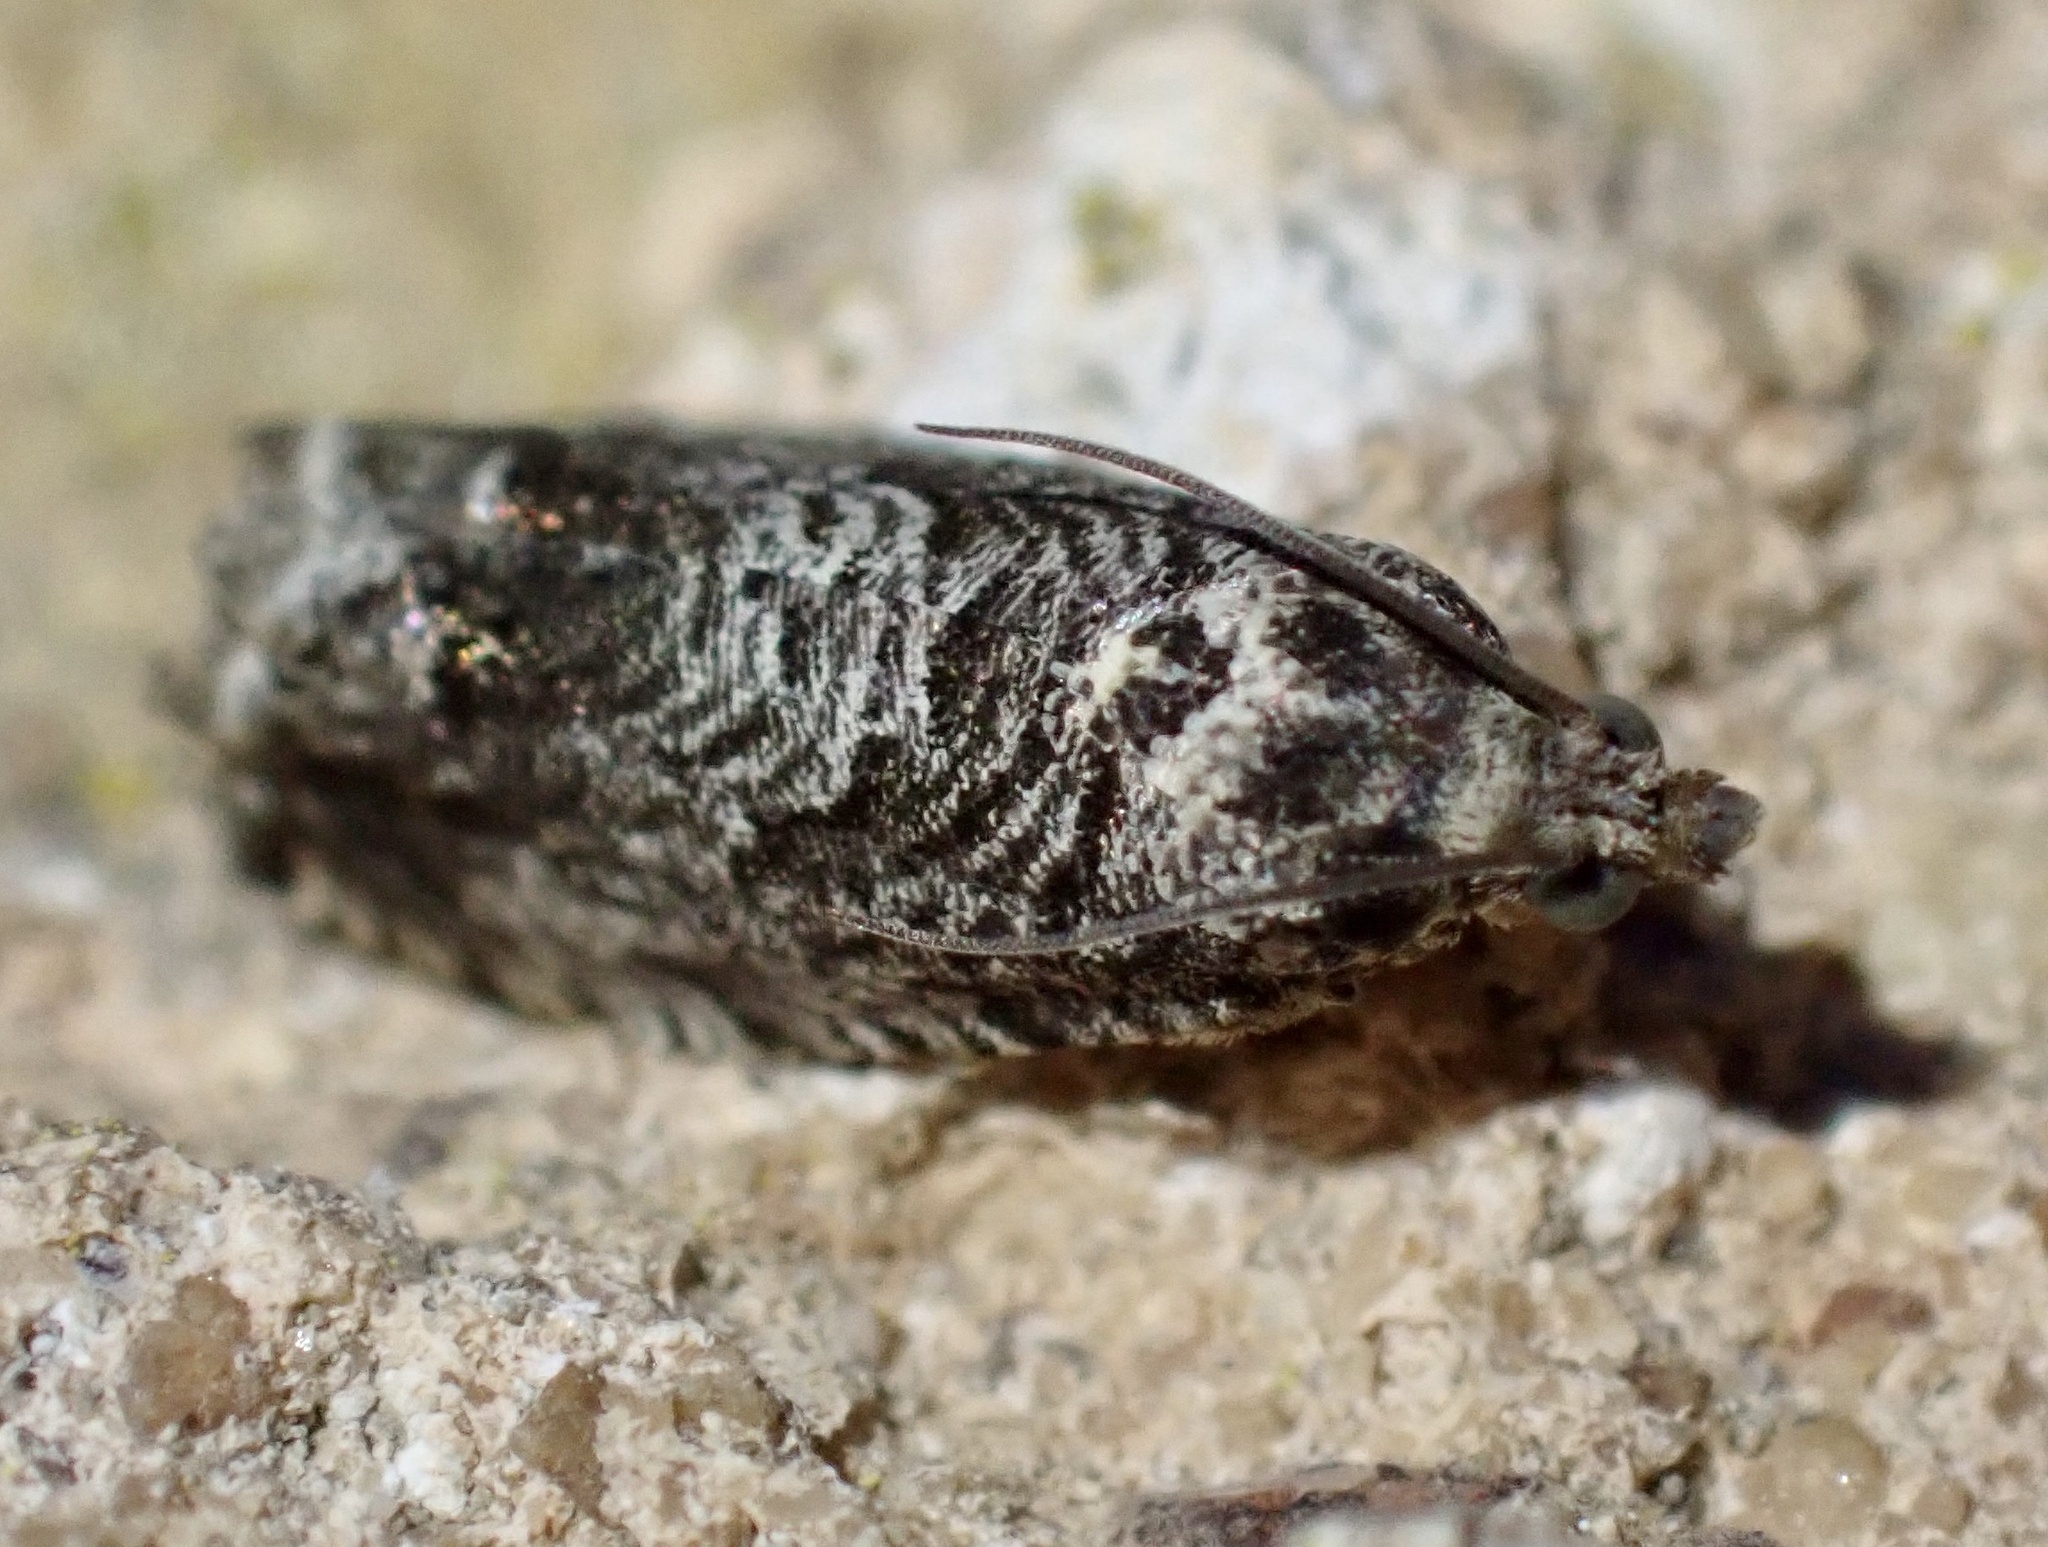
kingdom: Animalia
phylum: Arthropoda
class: Insecta
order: Lepidoptera
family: Tortricidae
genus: Cydia
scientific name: Cydia fagiglandana
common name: Large beech piercer
